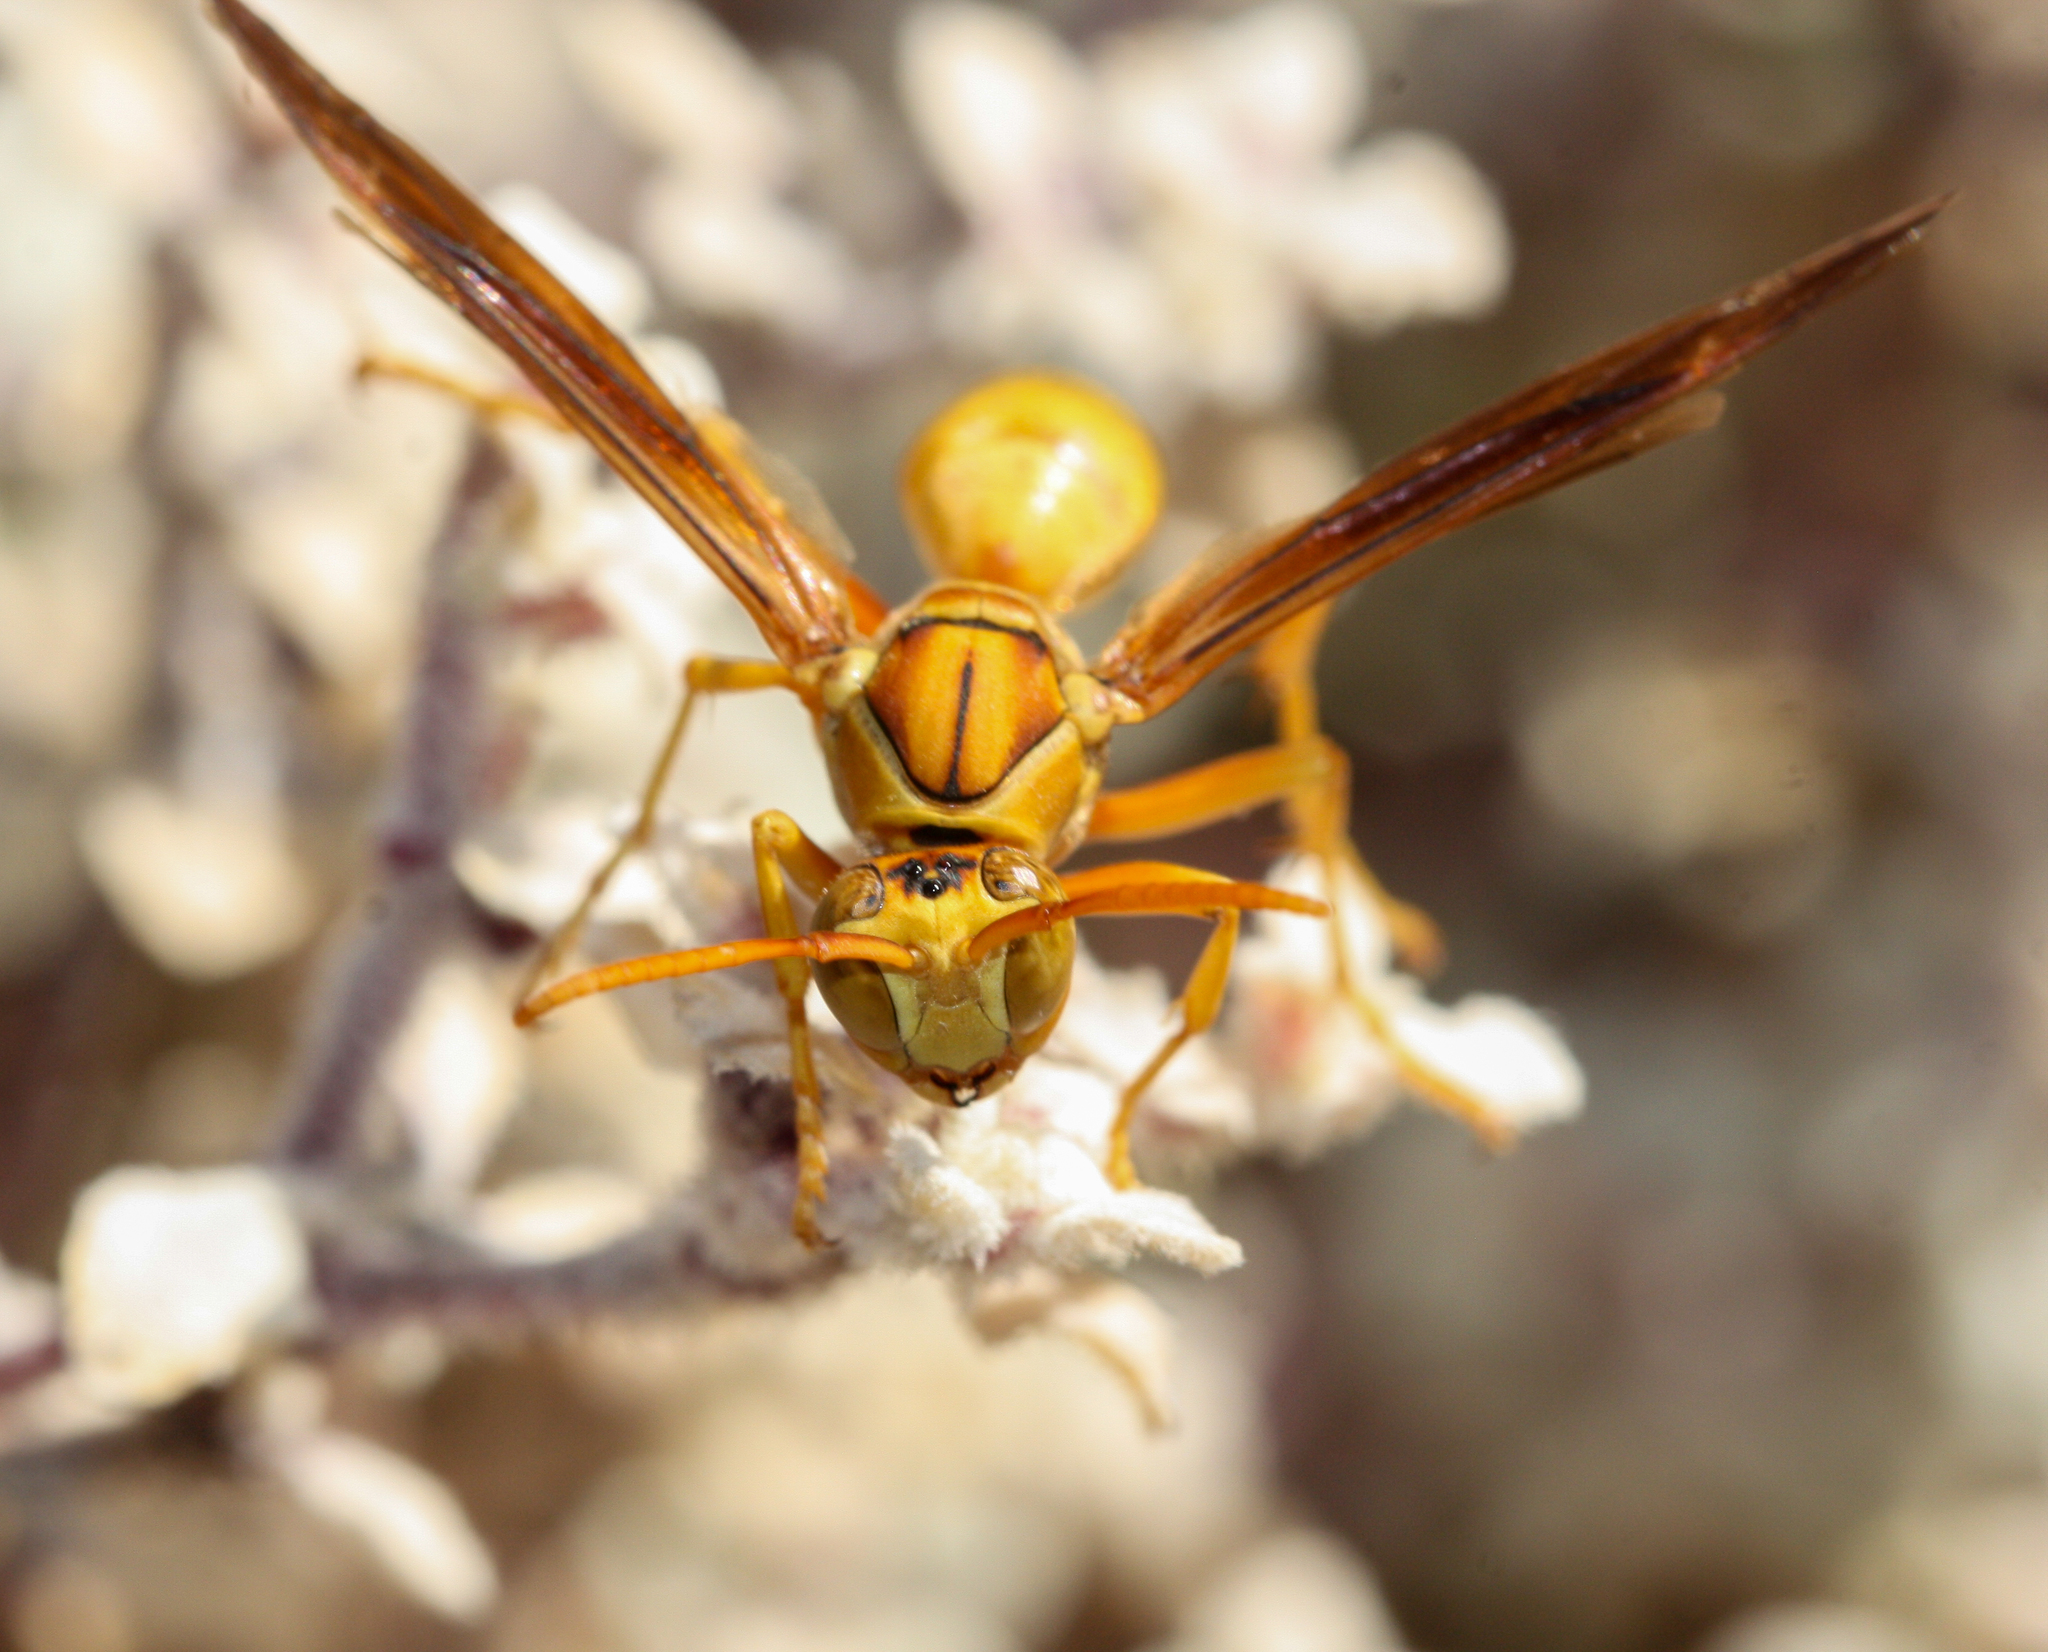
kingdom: Animalia
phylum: Arthropoda
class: Insecta
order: Hymenoptera
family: Eumenidae
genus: Polistes
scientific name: Polistes flavus
